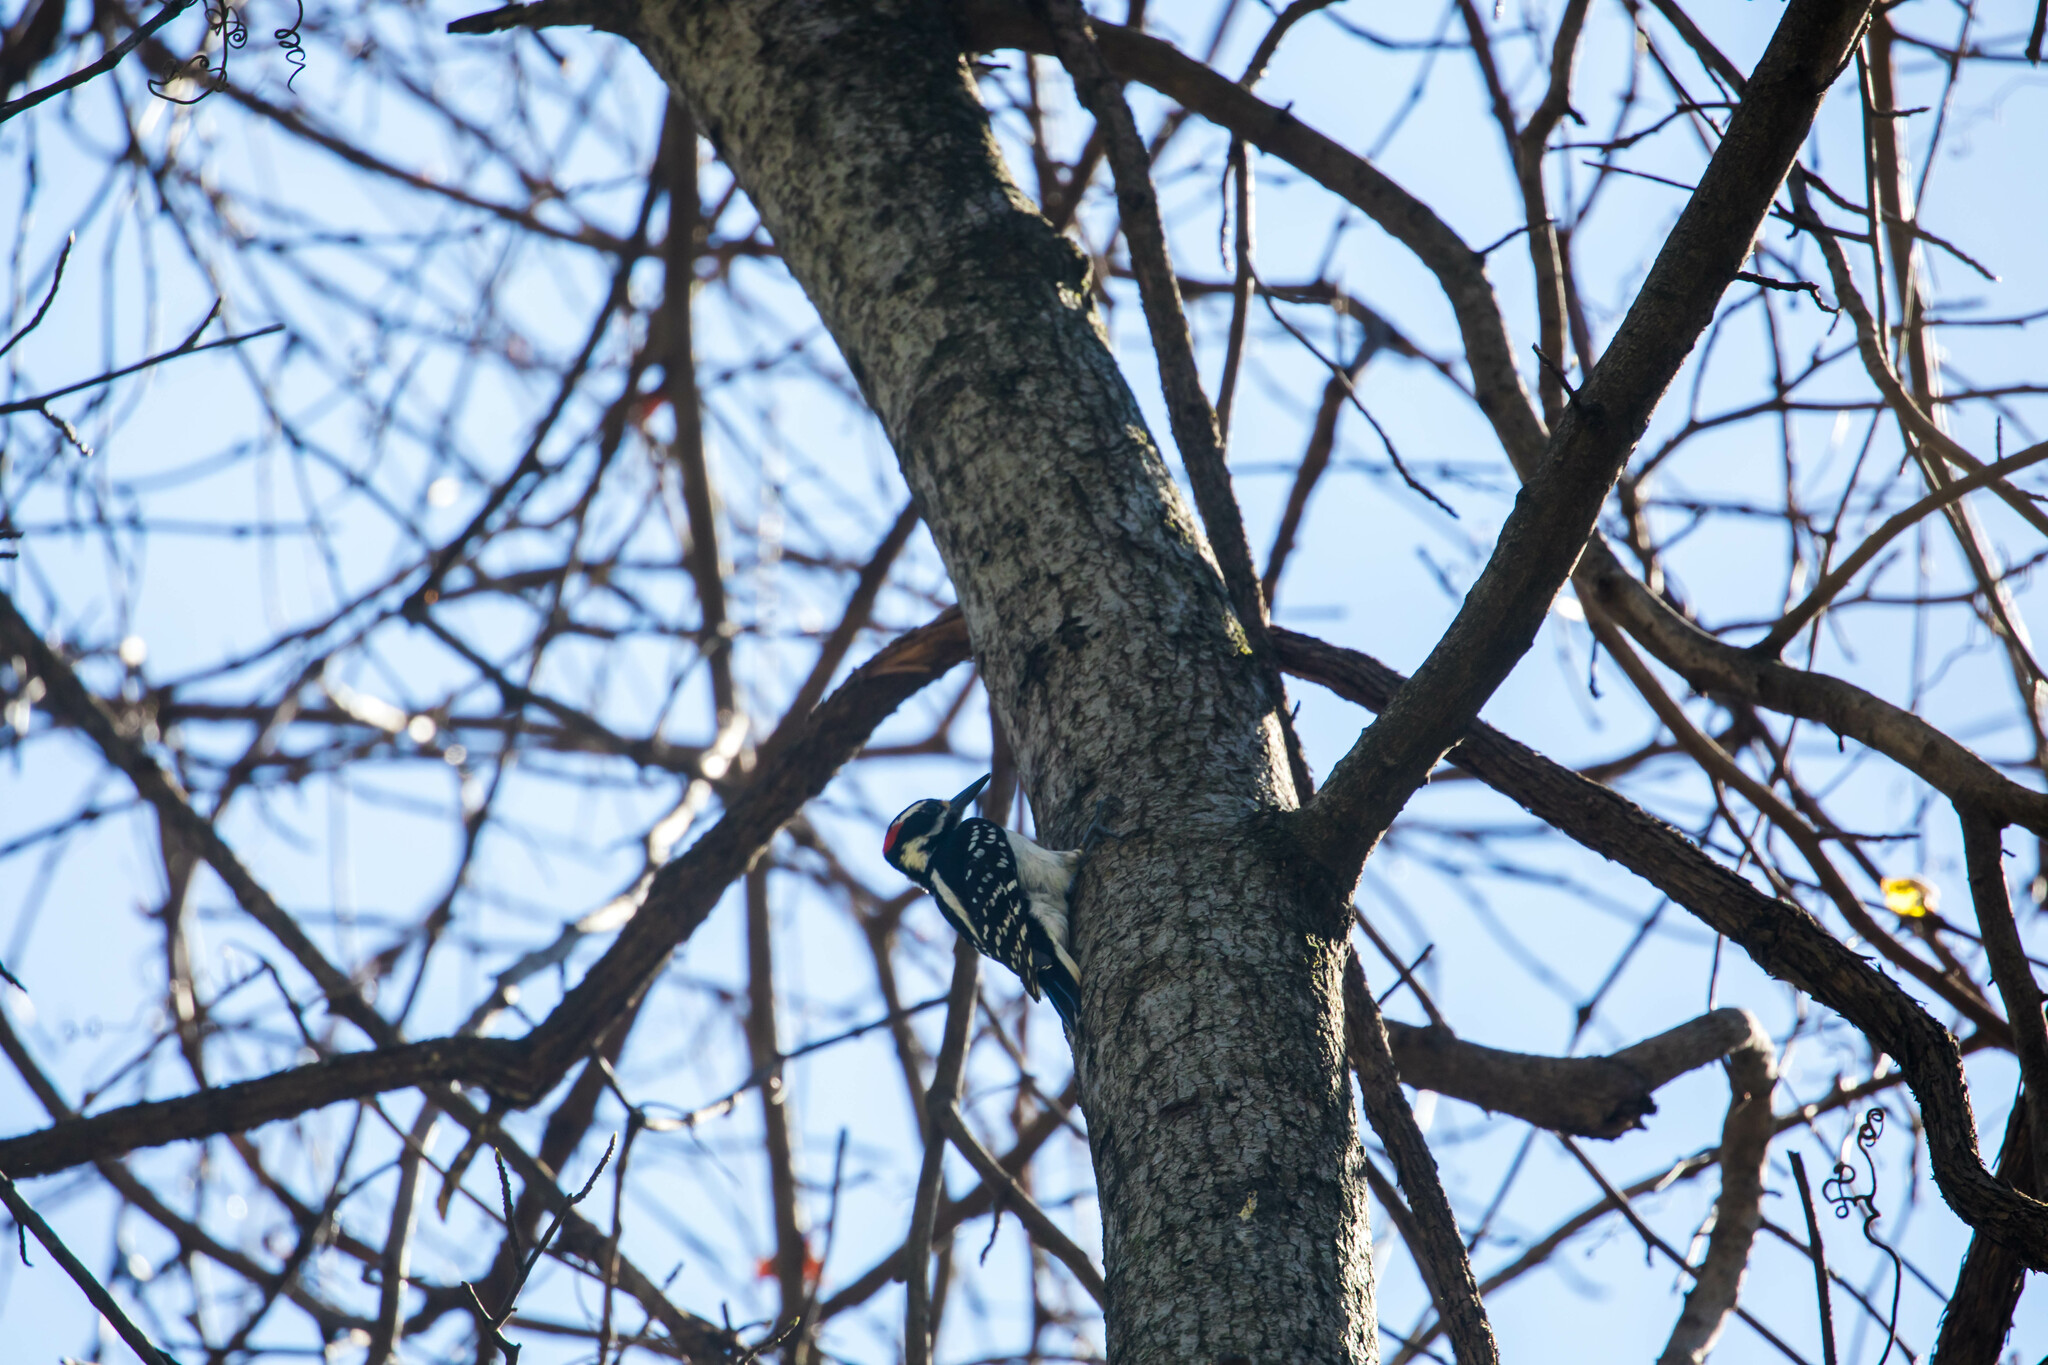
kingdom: Animalia
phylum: Chordata
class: Aves
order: Piciformes
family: Picidae
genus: Leuconotopicus
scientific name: Leuconotopicus villosus
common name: Hairy woodpecker
